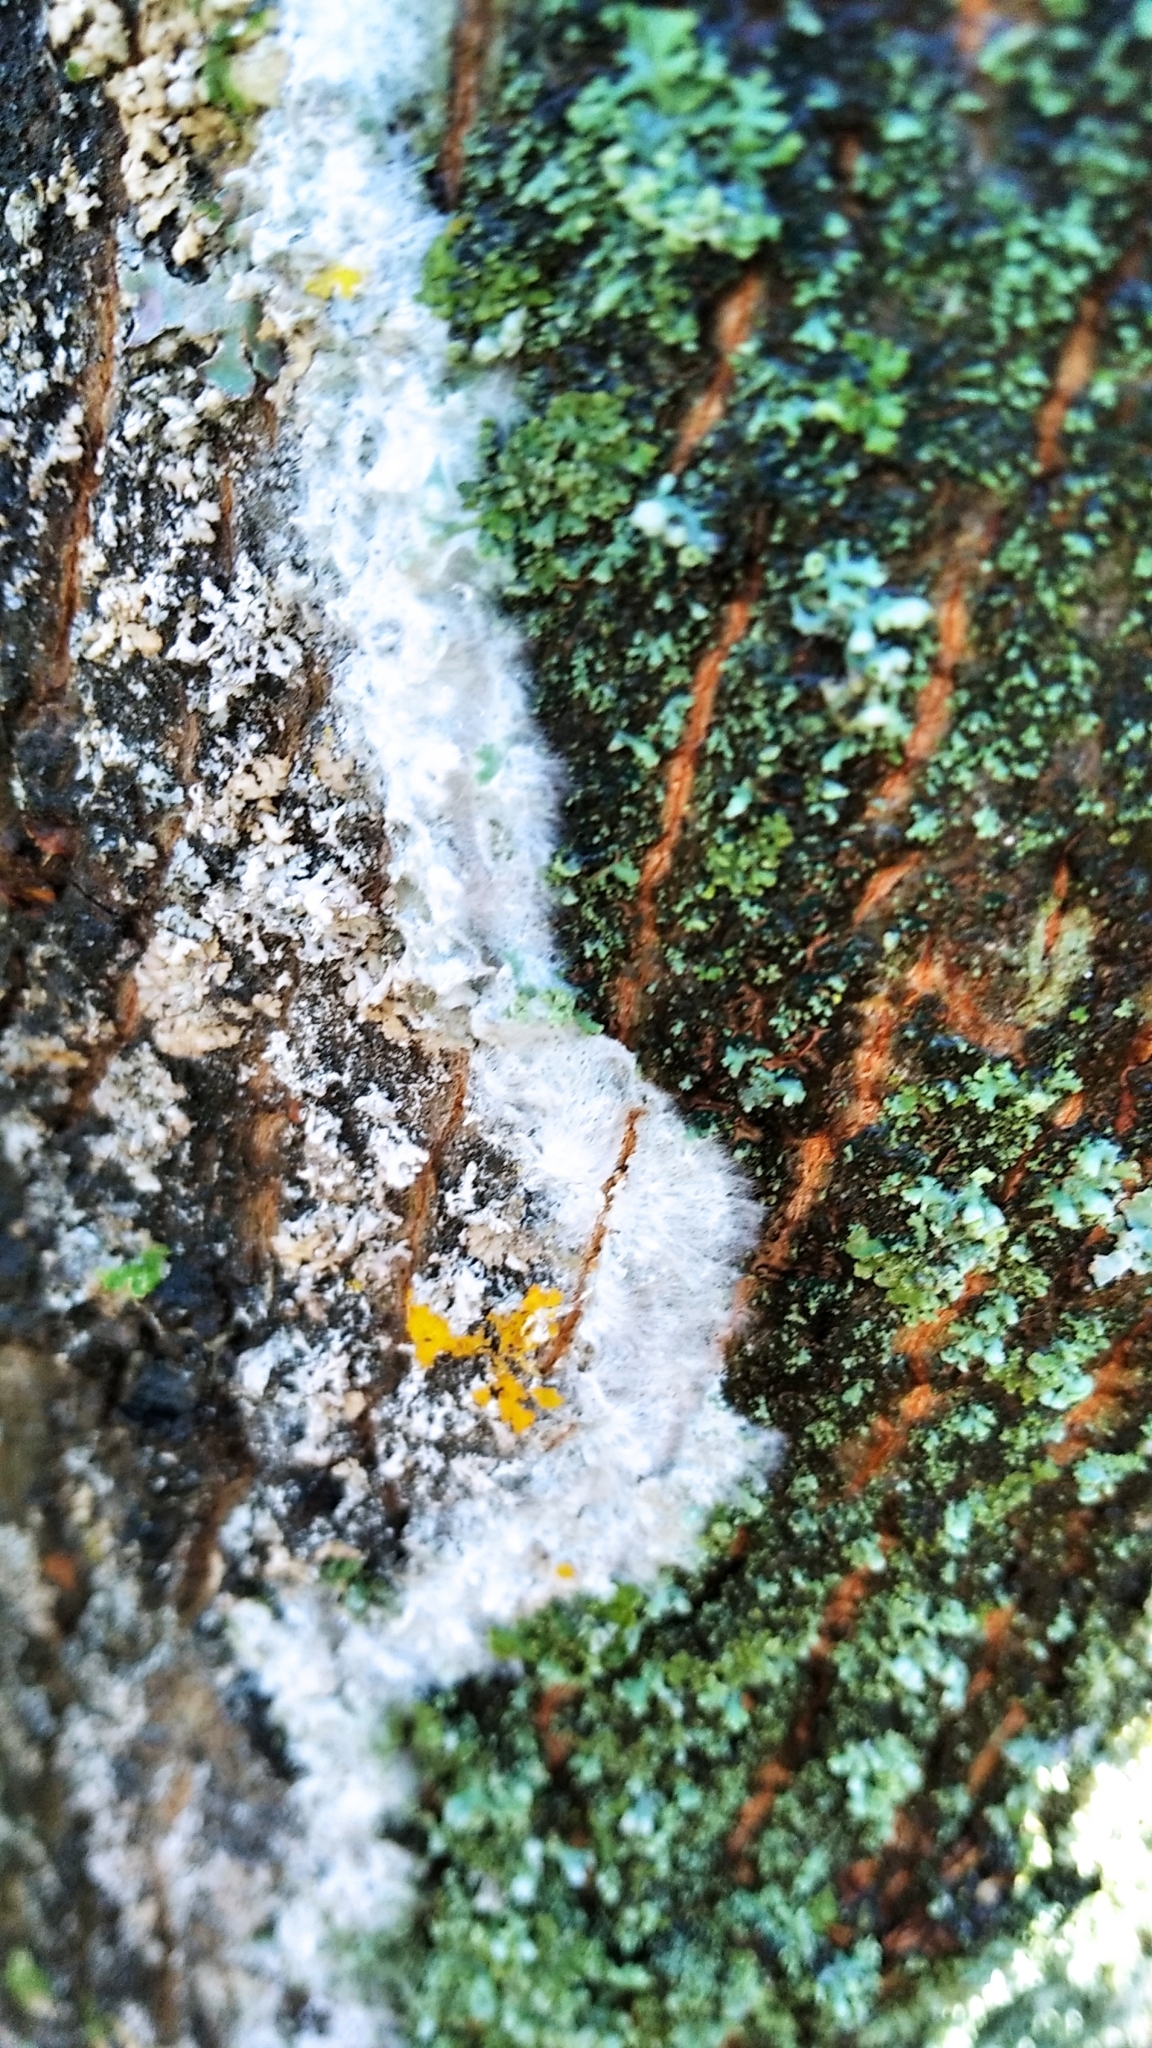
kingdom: Fungi
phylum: Basidiomycota
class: Agaricomycetes
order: Atheliales
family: Atheliaceae
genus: Athelia
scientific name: Athelia arachnoidea
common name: Candelabra duster
